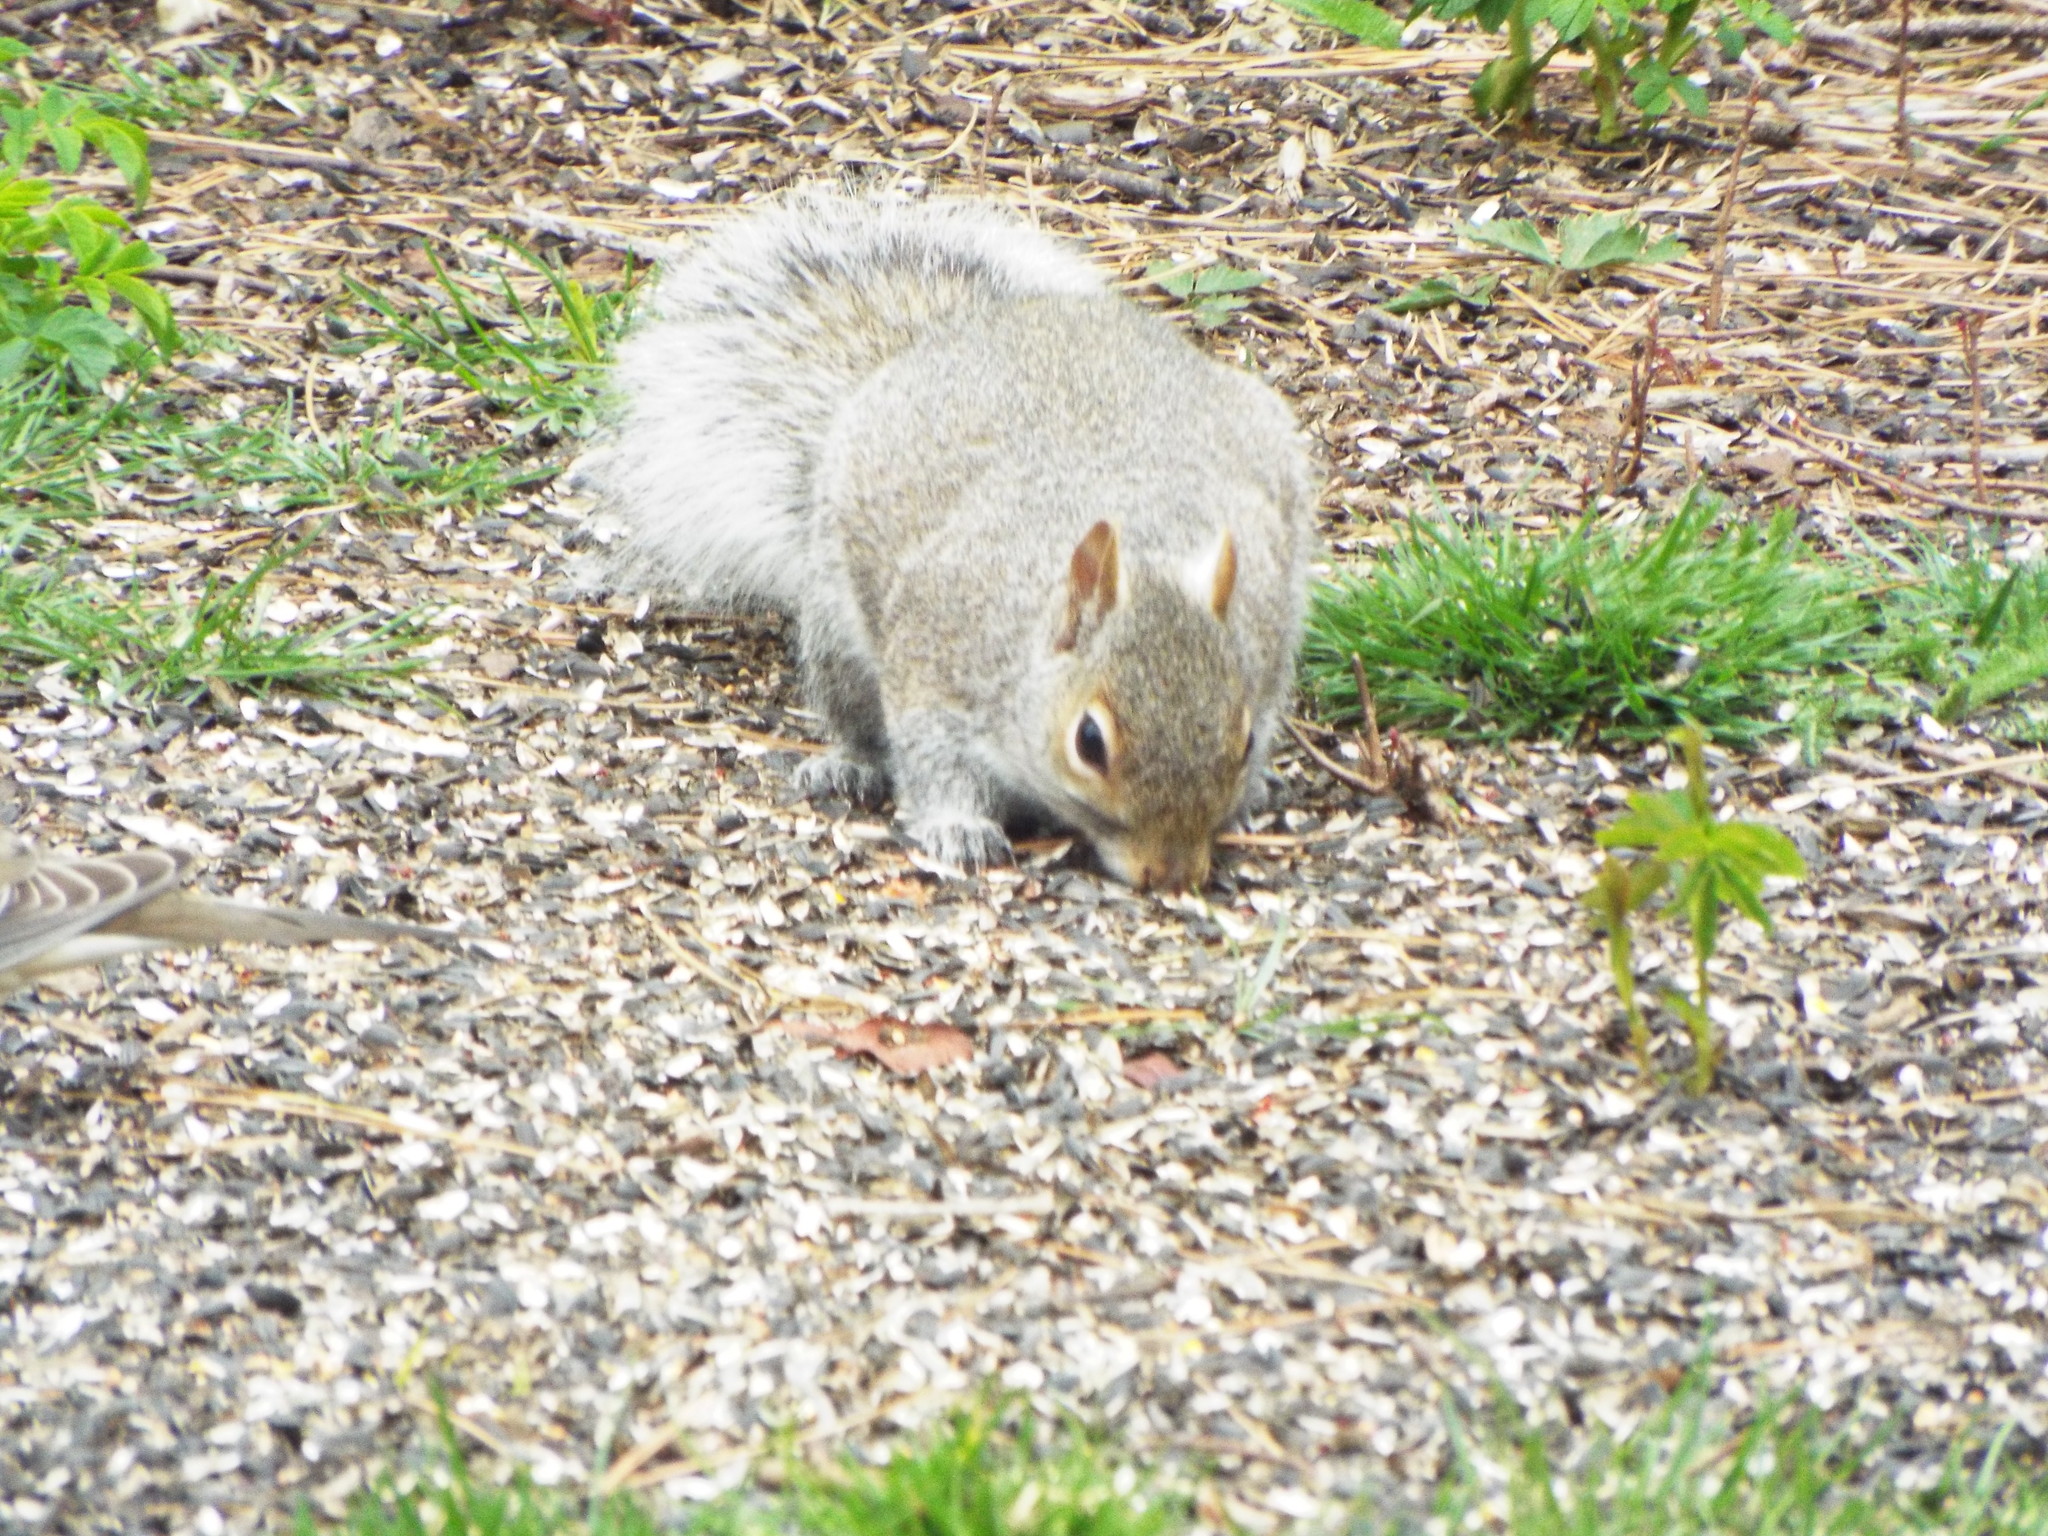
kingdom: Animalia
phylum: Chordata
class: Mammalia
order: Rodentia
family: Sciuridae
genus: Sciurus
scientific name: Sciurus carolinensis
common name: Eastern gray squirrel
